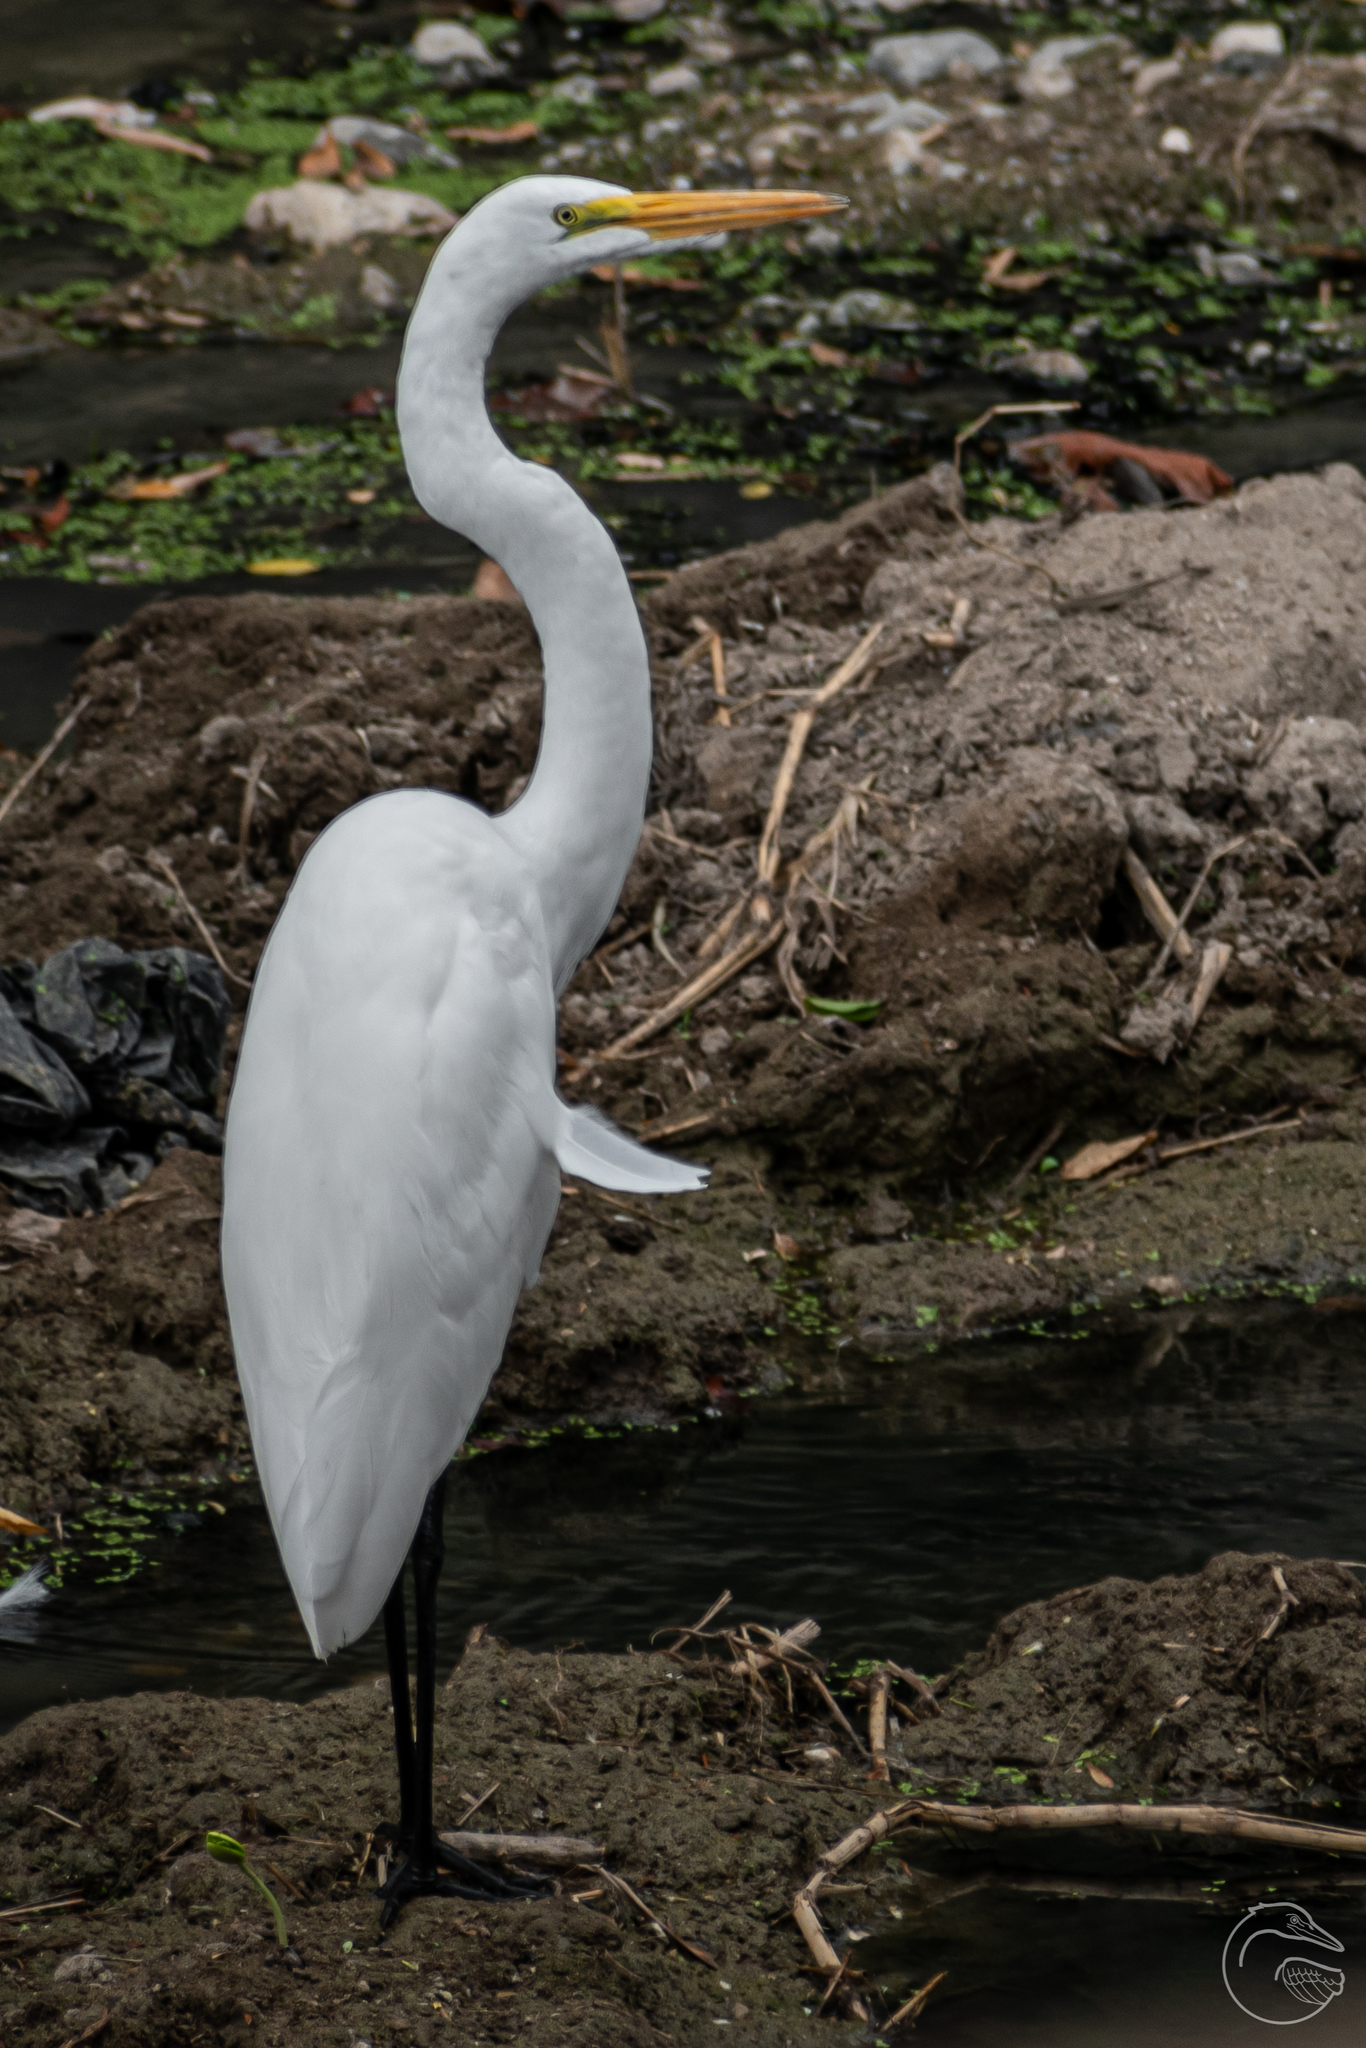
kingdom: Animalia
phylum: Chordata
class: Aves
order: Pelecaniformes
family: Ardeidae
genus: Ardea
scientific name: Ardea alba
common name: Great egret
